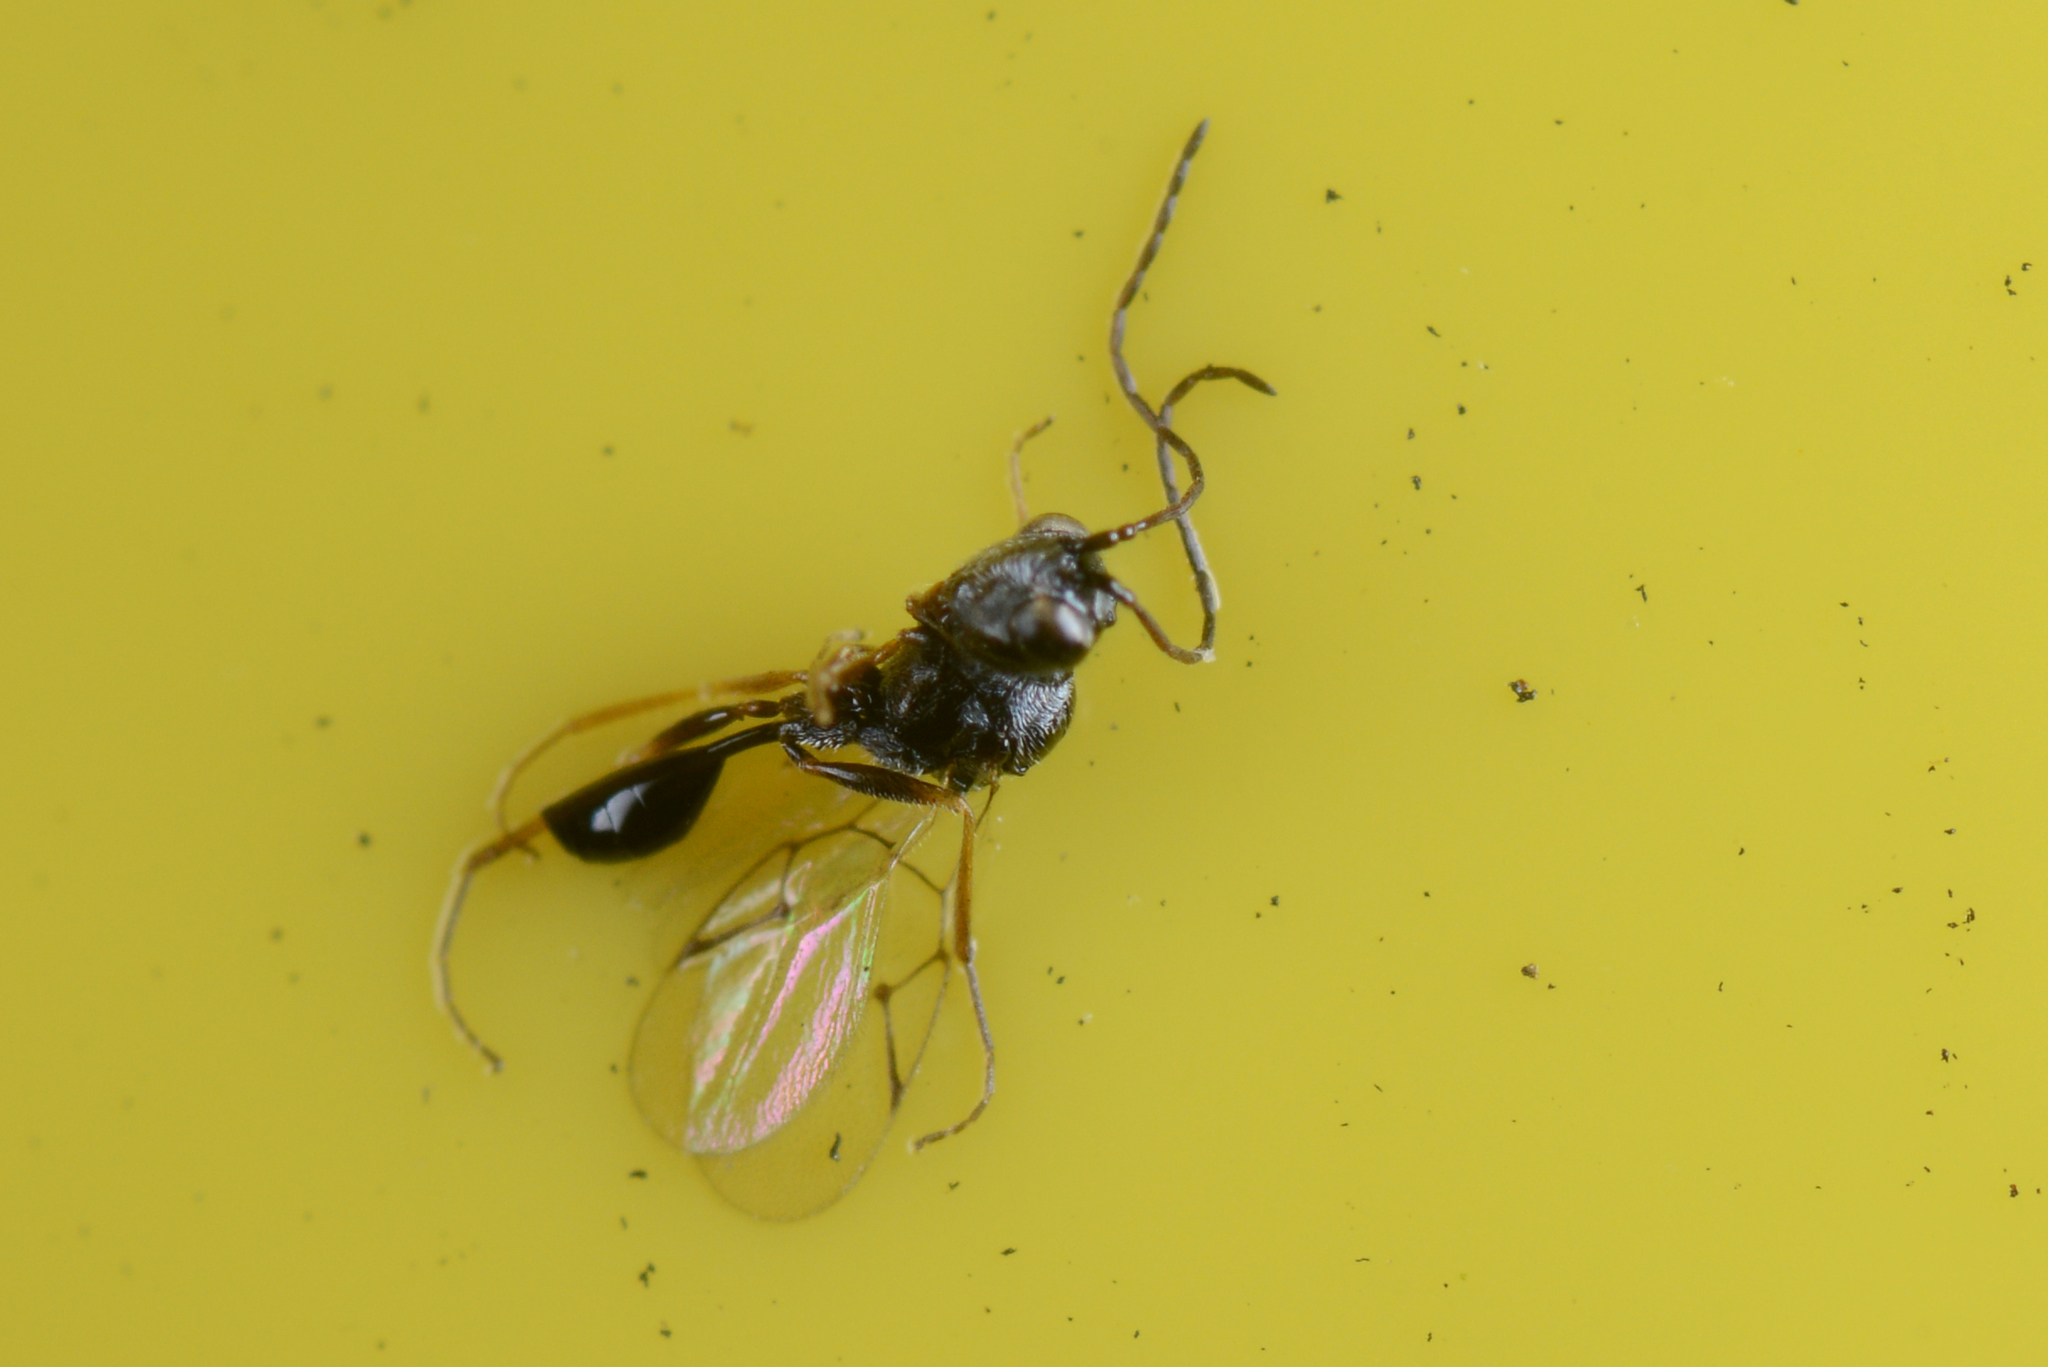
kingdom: Animalia
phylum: Arthropoda
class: Insecta
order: Hymenoptera
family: Figitidae
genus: Anacharis
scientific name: Anacharis zealandica
